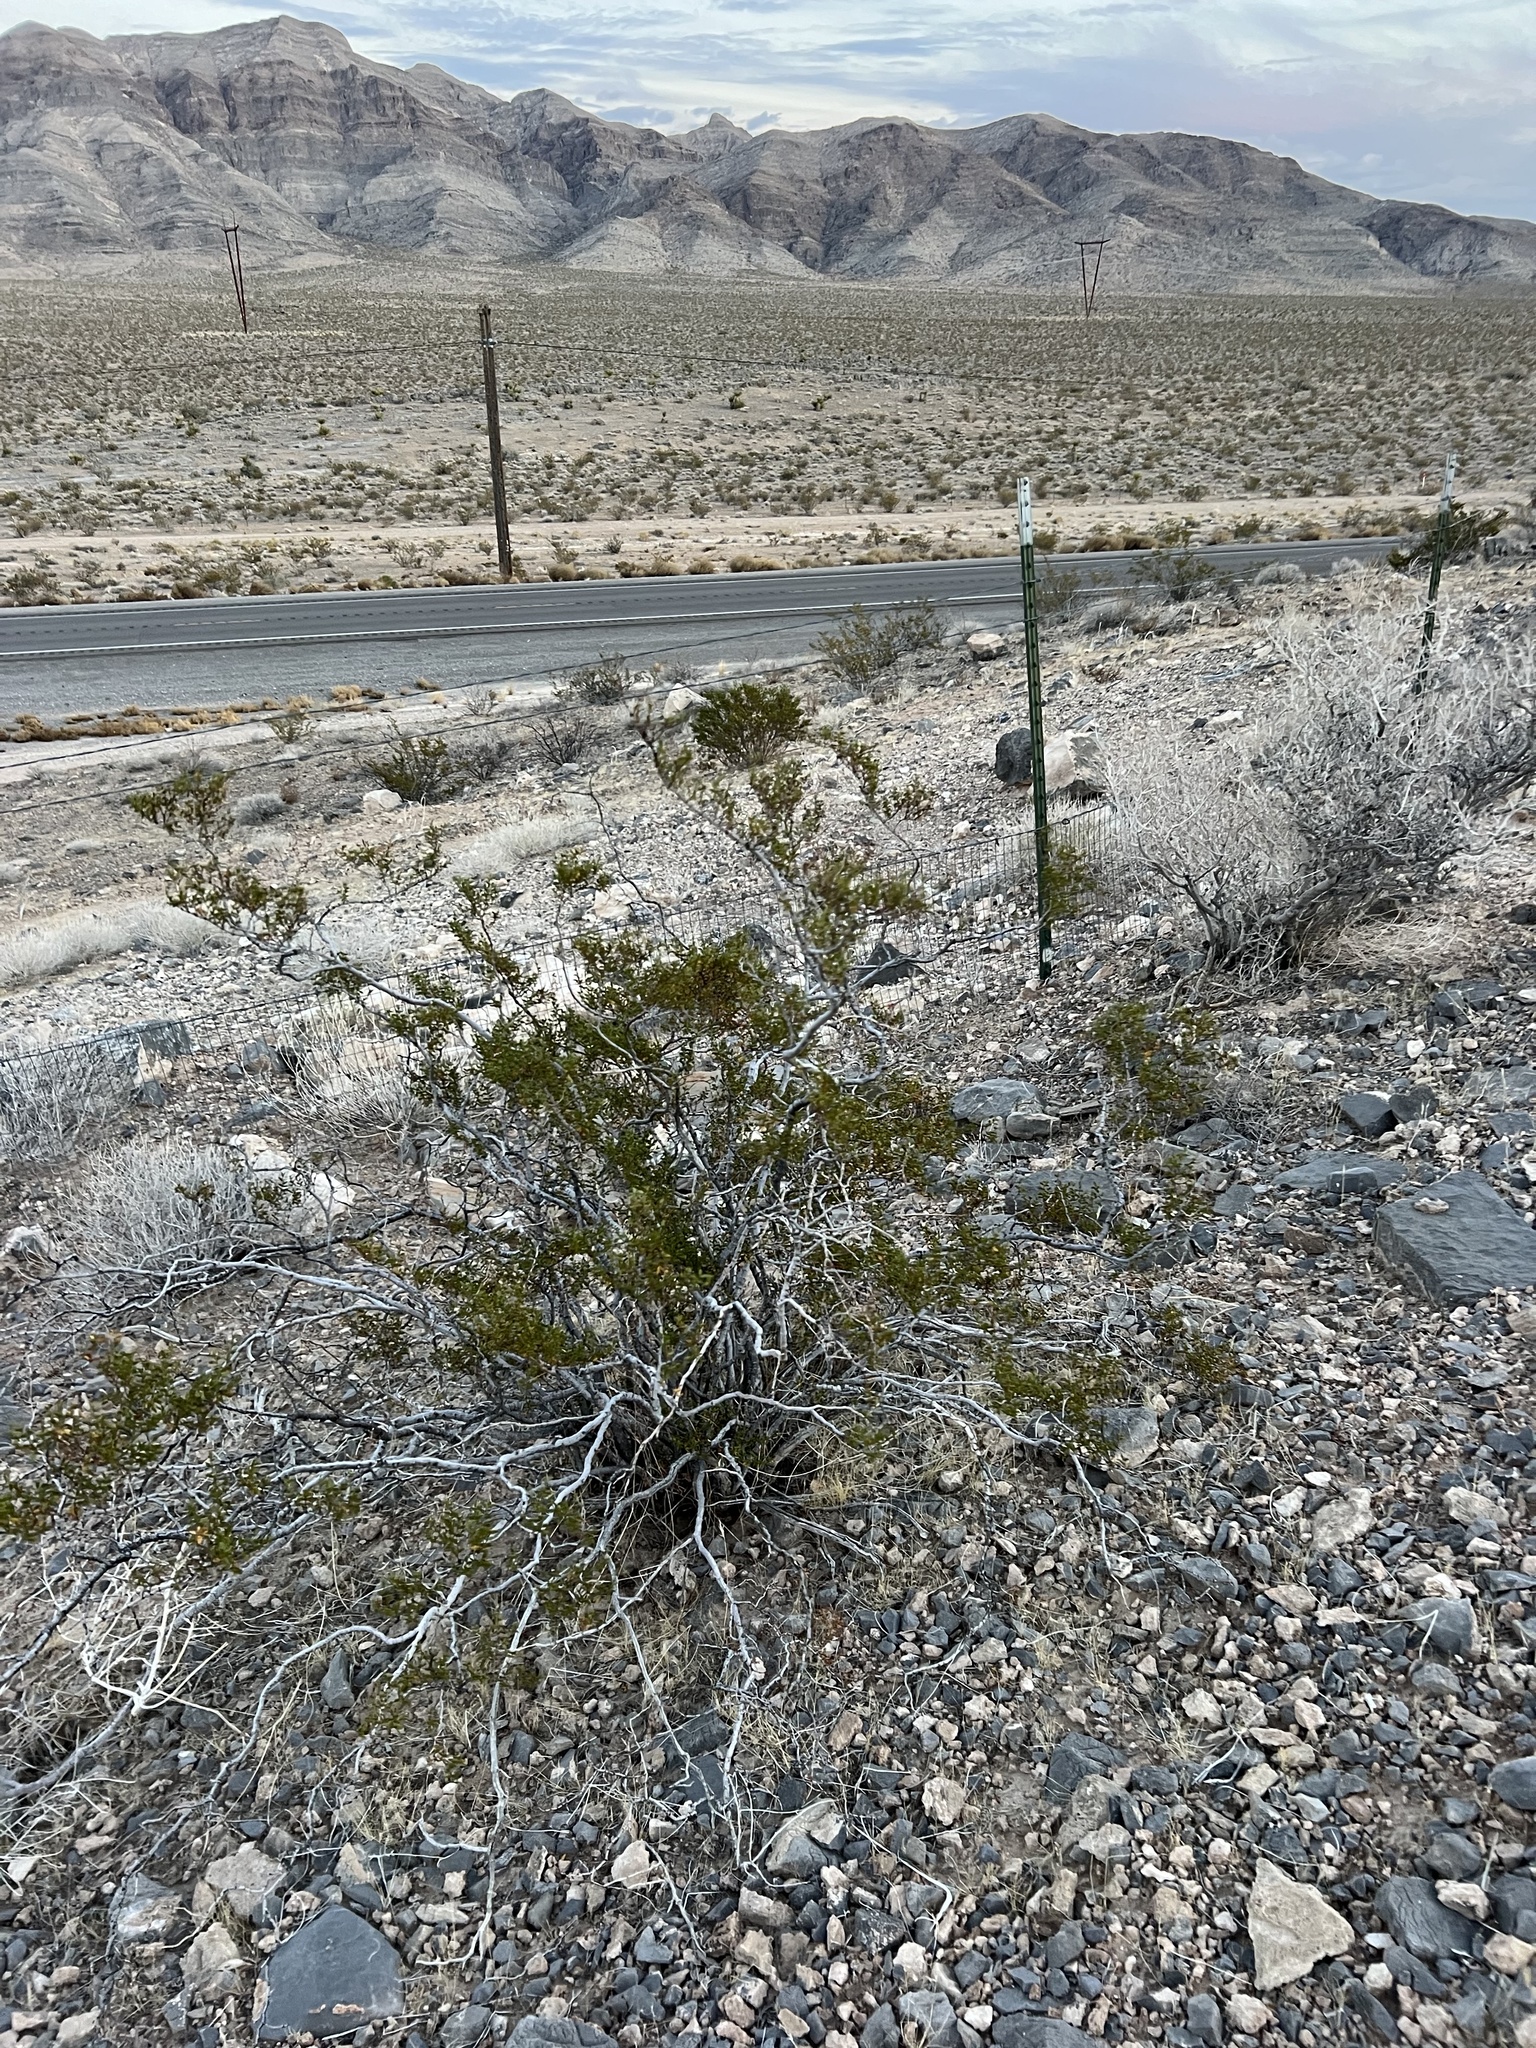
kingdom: Plantae
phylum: Tracheophyta
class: Magnoliopsida
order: Zygophyllales
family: Zygophyllaceae
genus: Larrea
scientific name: Larrea tridentata
